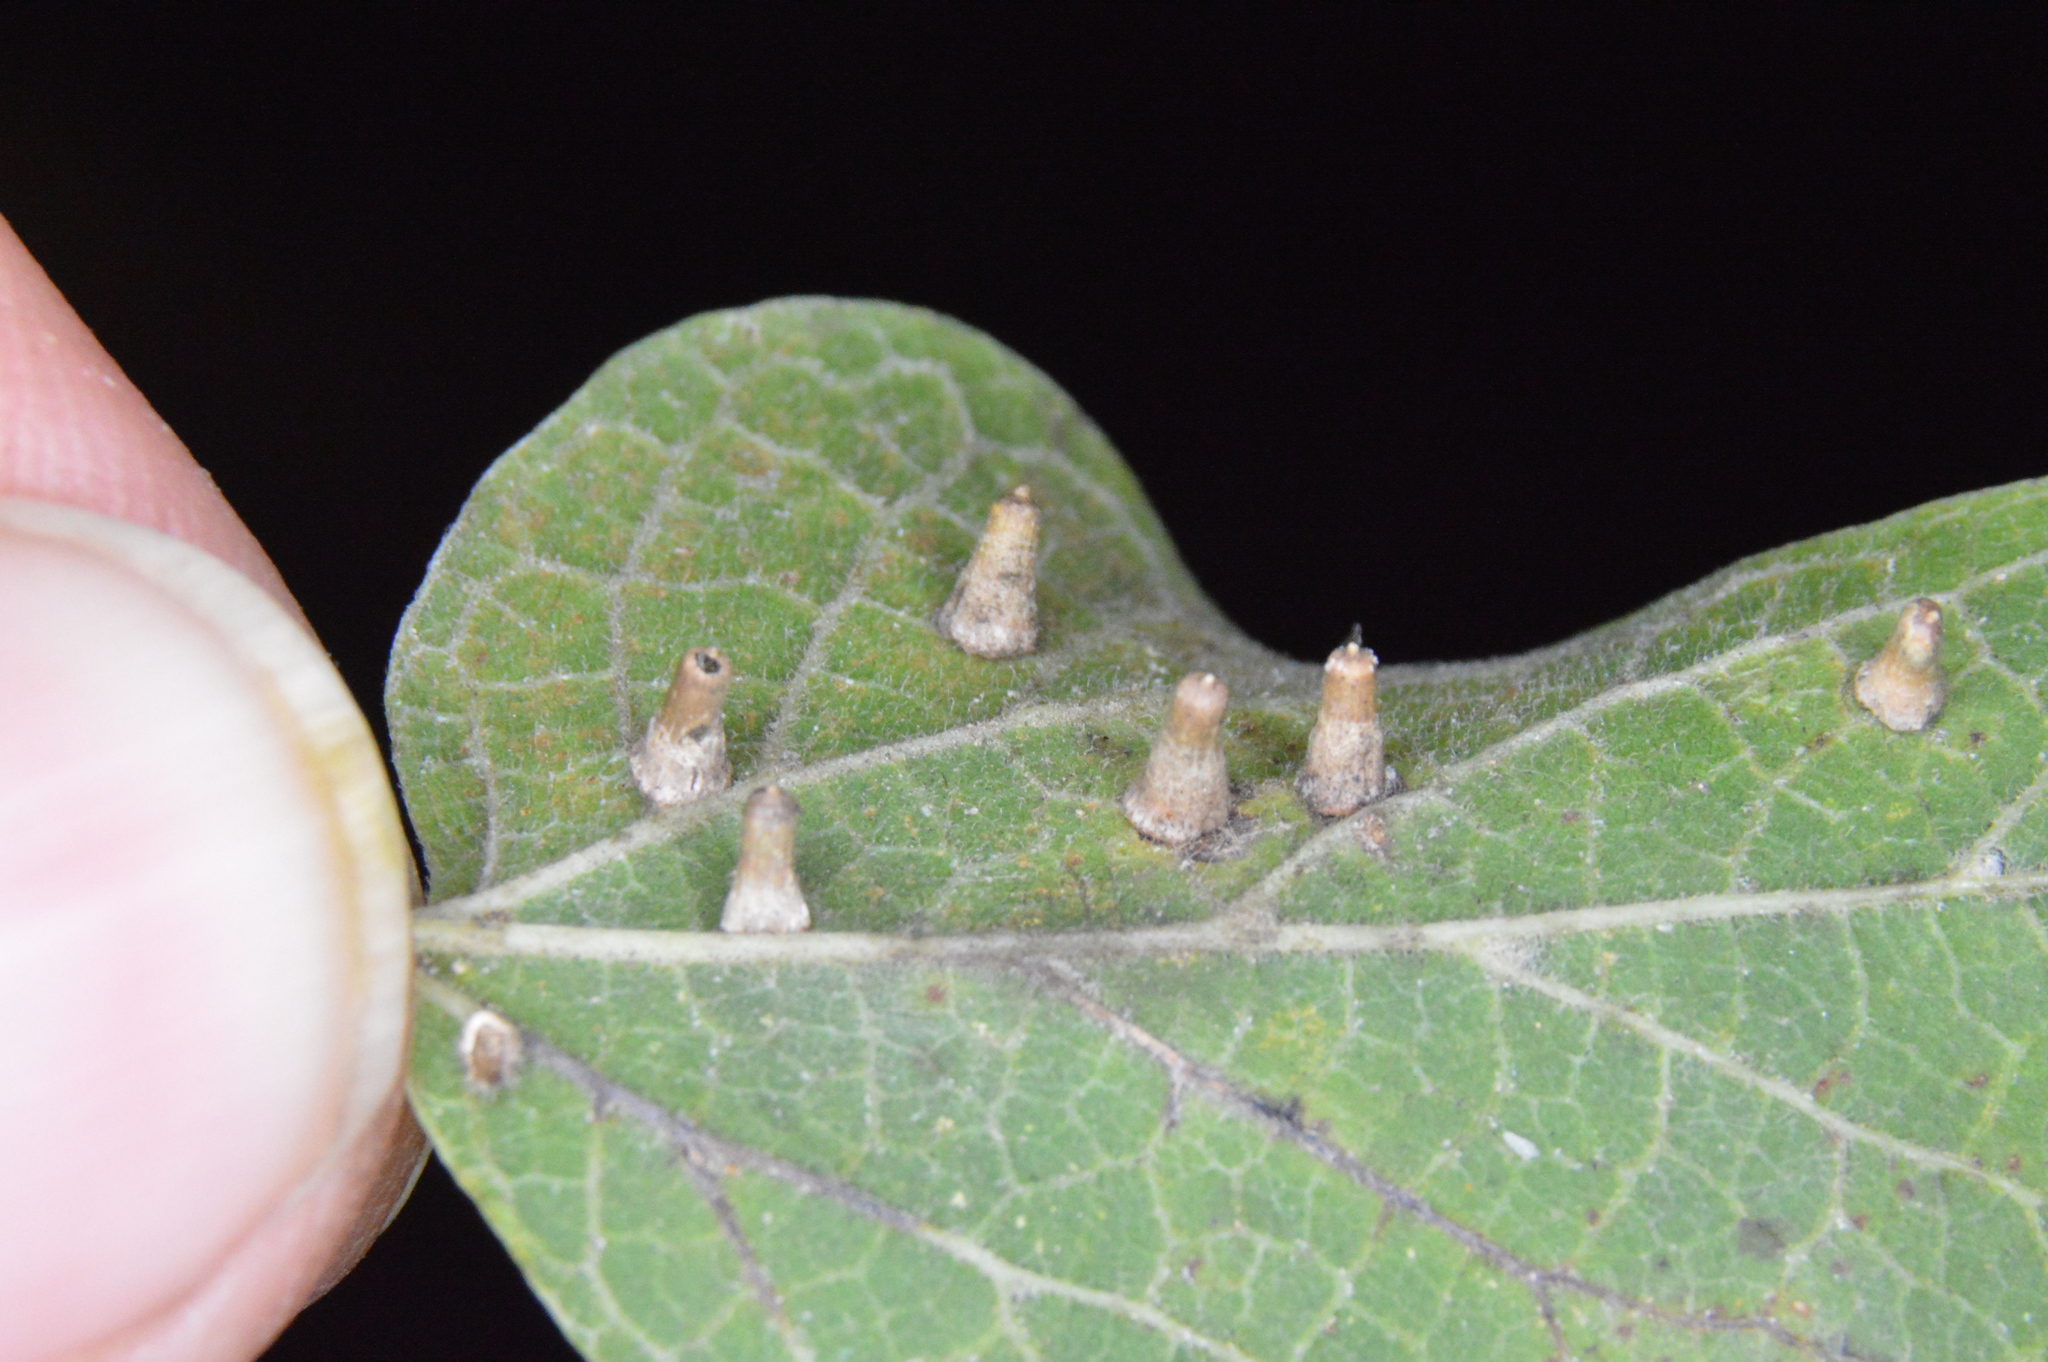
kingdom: Animalia
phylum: Arthropoda
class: Insecta
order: Diptera
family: Cecidomyiidae
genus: Celticecis
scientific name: Celticecis aciculata
